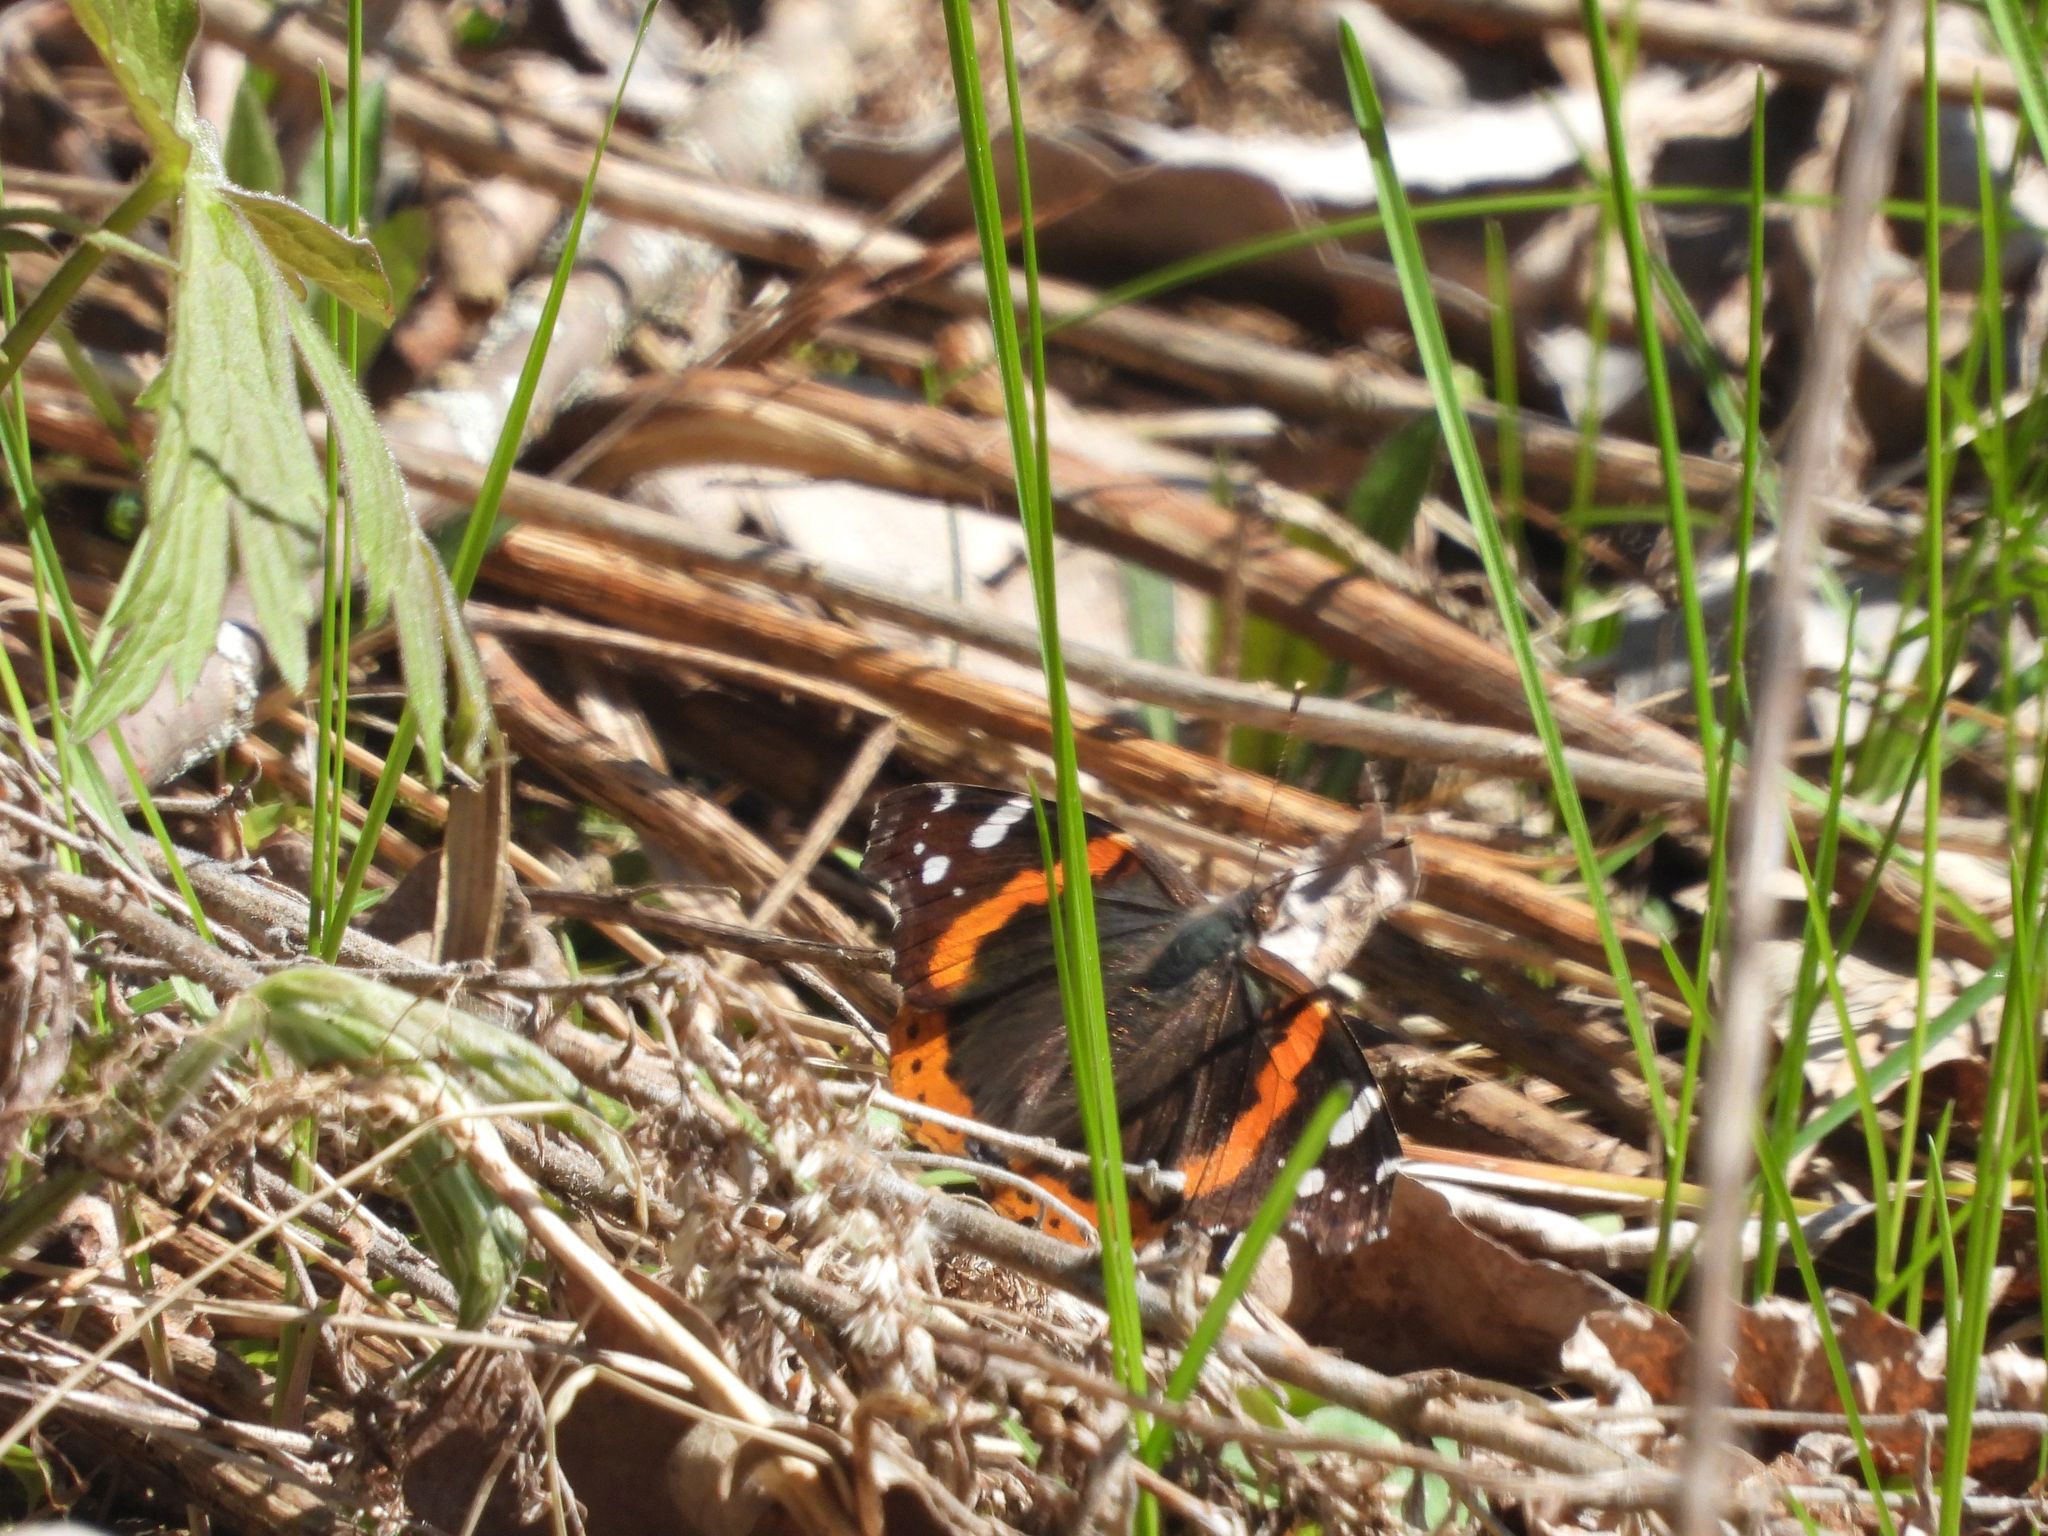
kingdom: Animalia
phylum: Arthropoda
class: Insecta
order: Lepidoptera
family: Nymphalidae
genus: Vanessa
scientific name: Vanessa atalanta
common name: Red admiral
